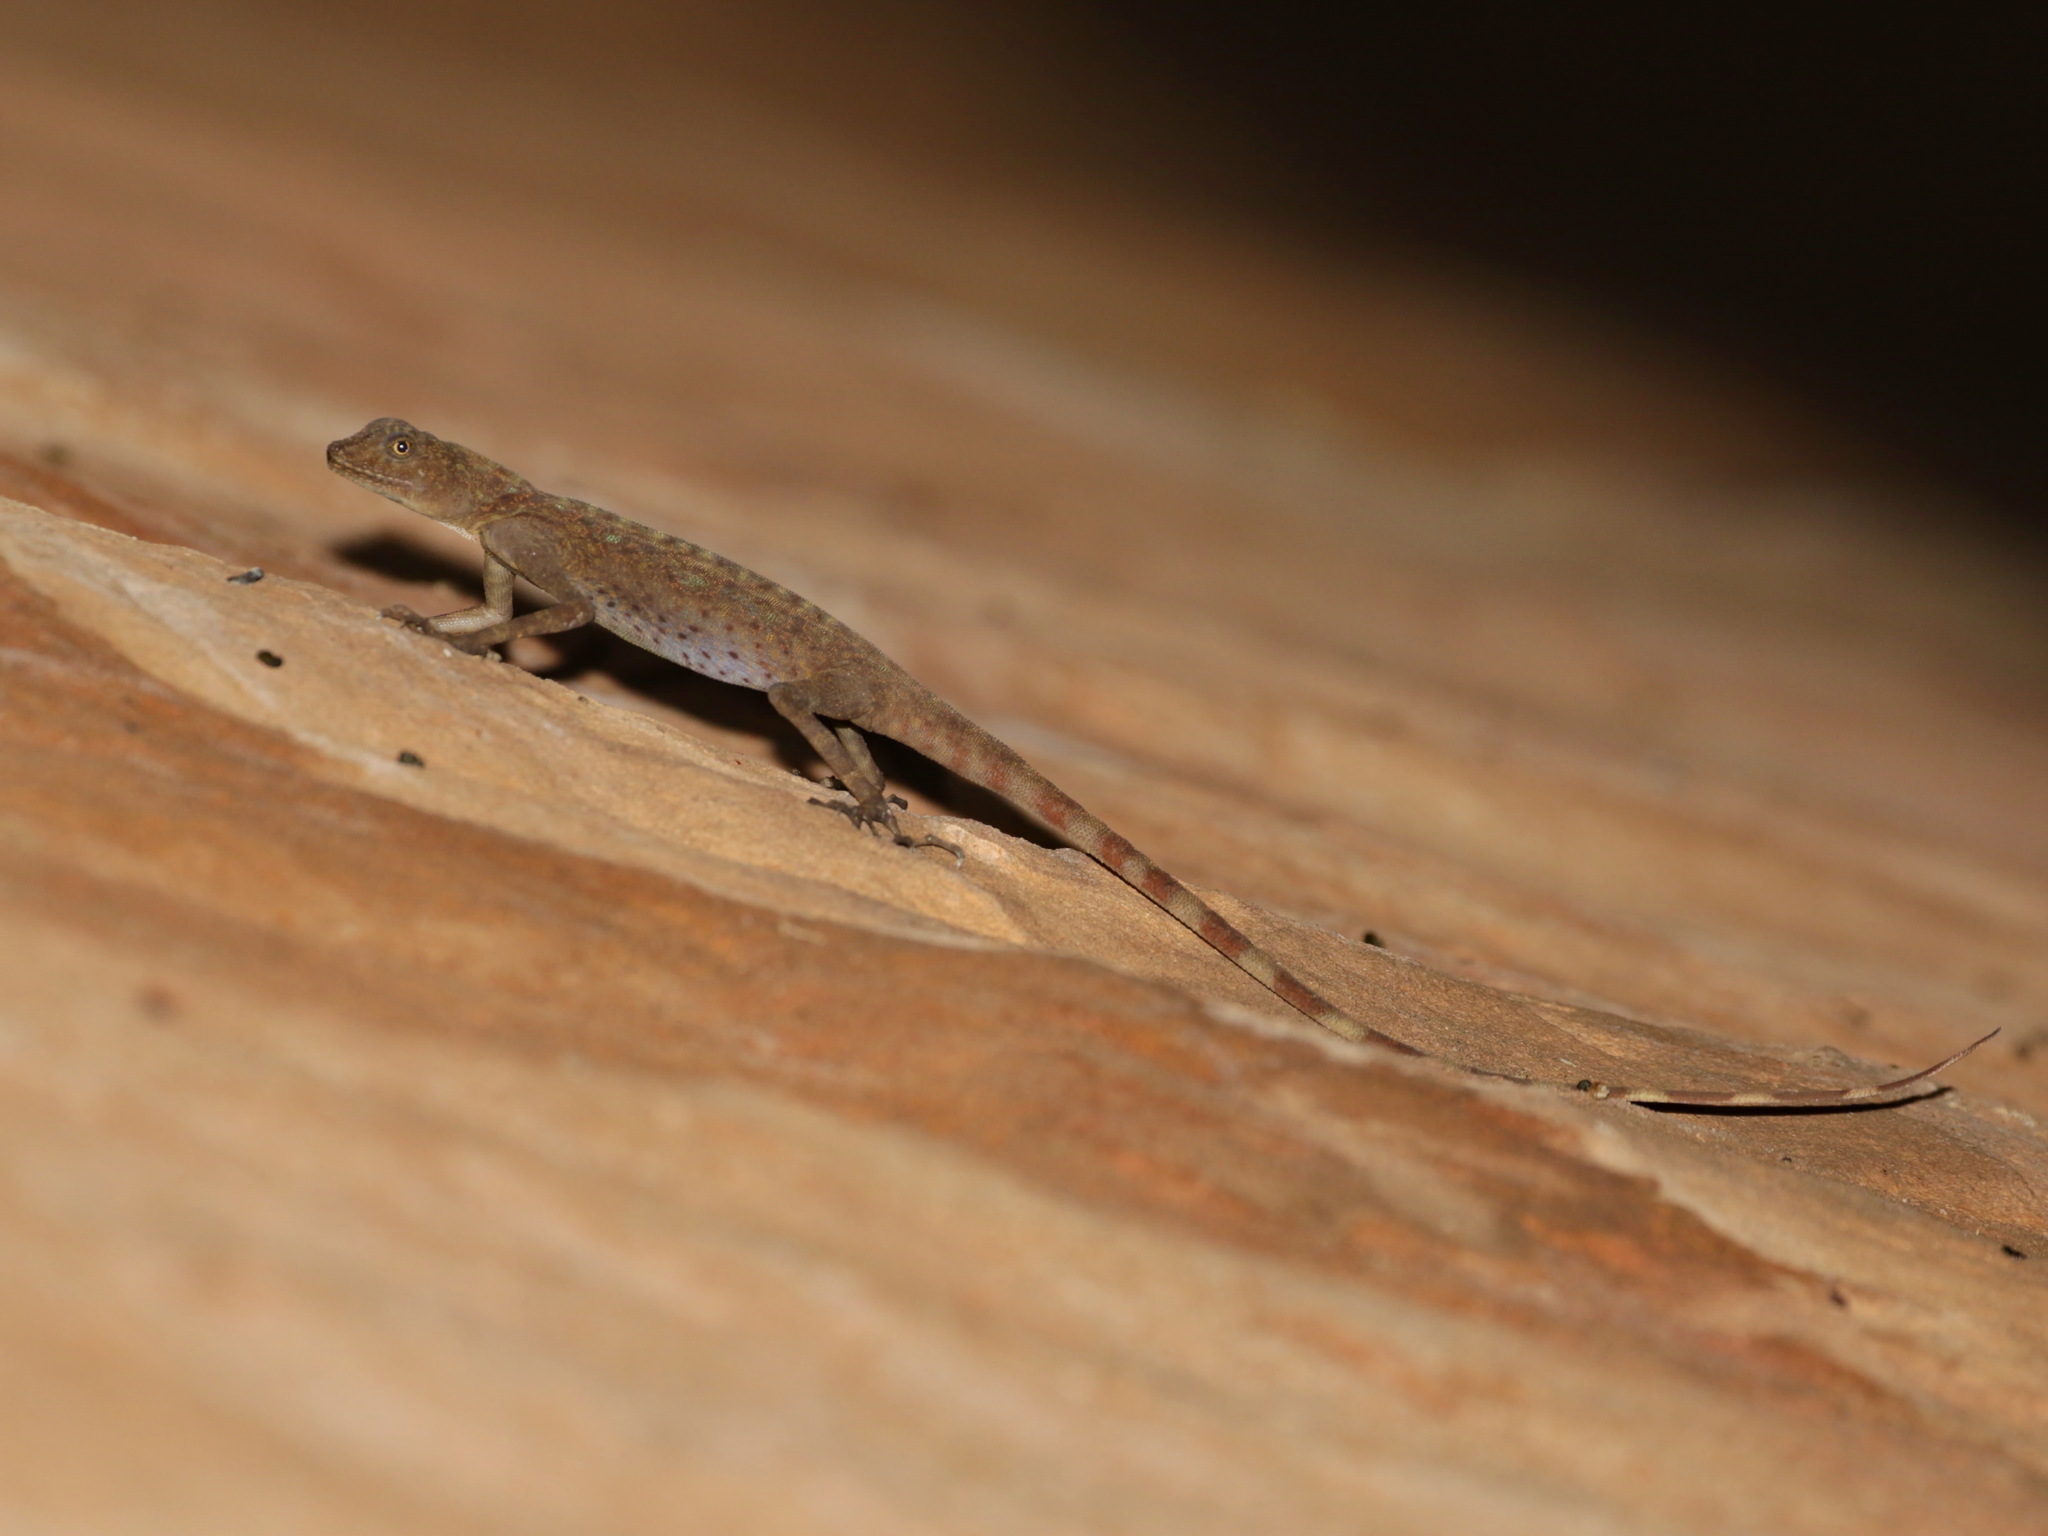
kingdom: Animalia
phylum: Chordata
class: Squamata
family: Agamidae
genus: Mantheyus
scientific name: Mantheyus phuwuanensis
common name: Phuwua rock agama
